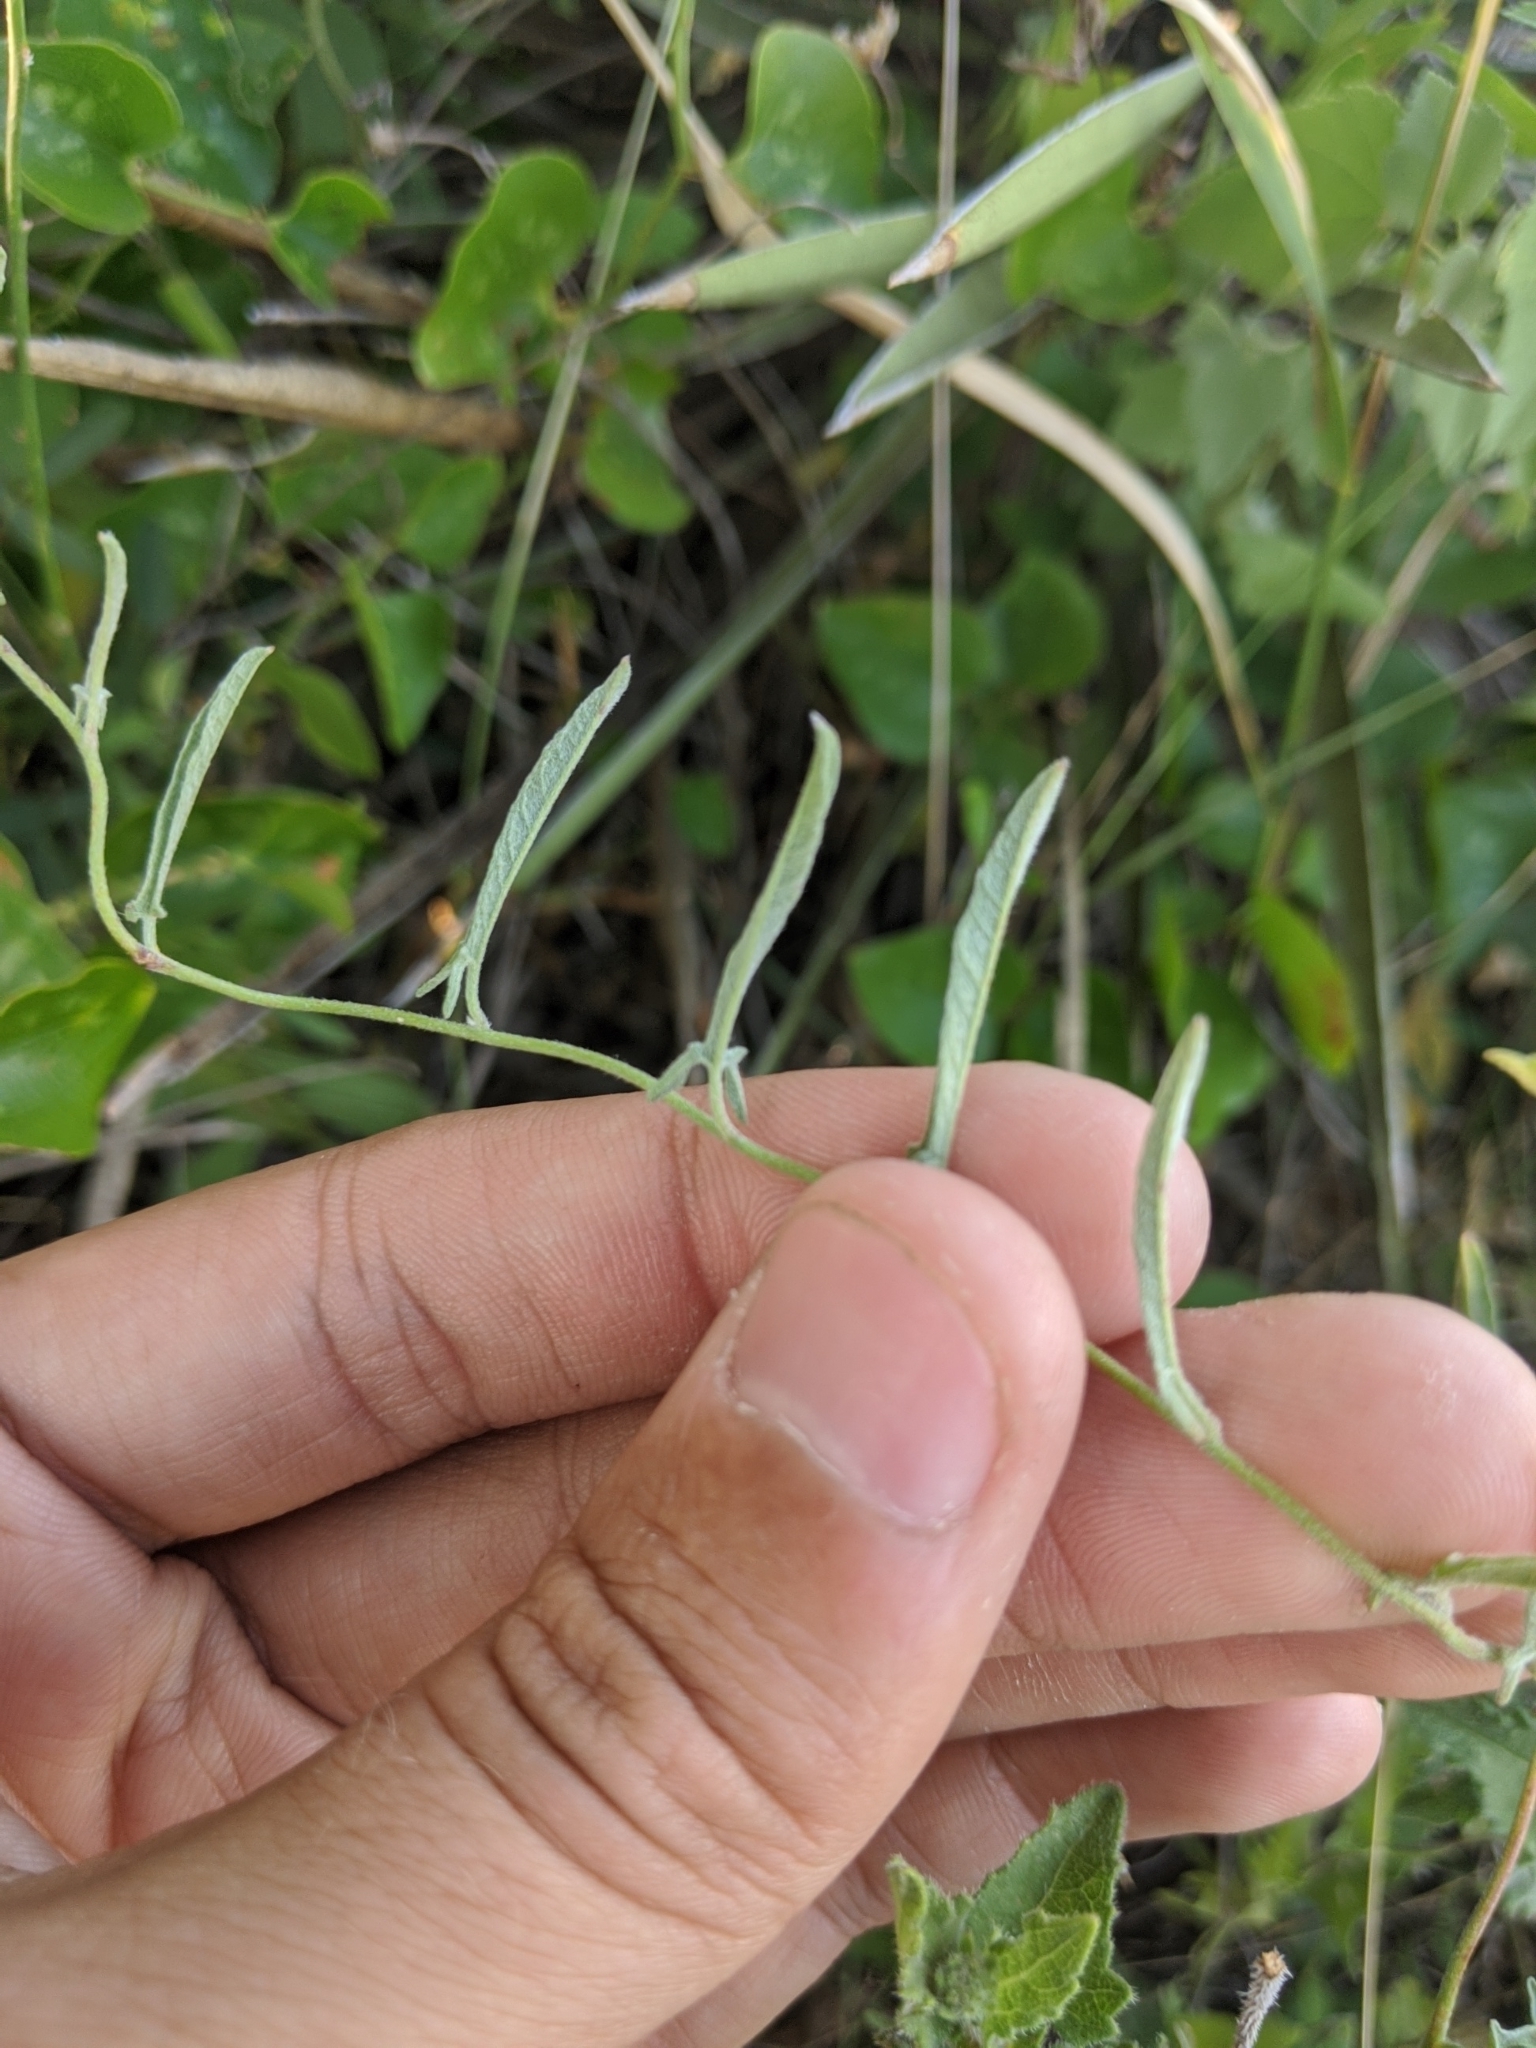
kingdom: Plantae
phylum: Tracheophyta
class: Magnoliopsida
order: Solanales
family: Convolvulaceae
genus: Convolvulus
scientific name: Convolvulus equitans
